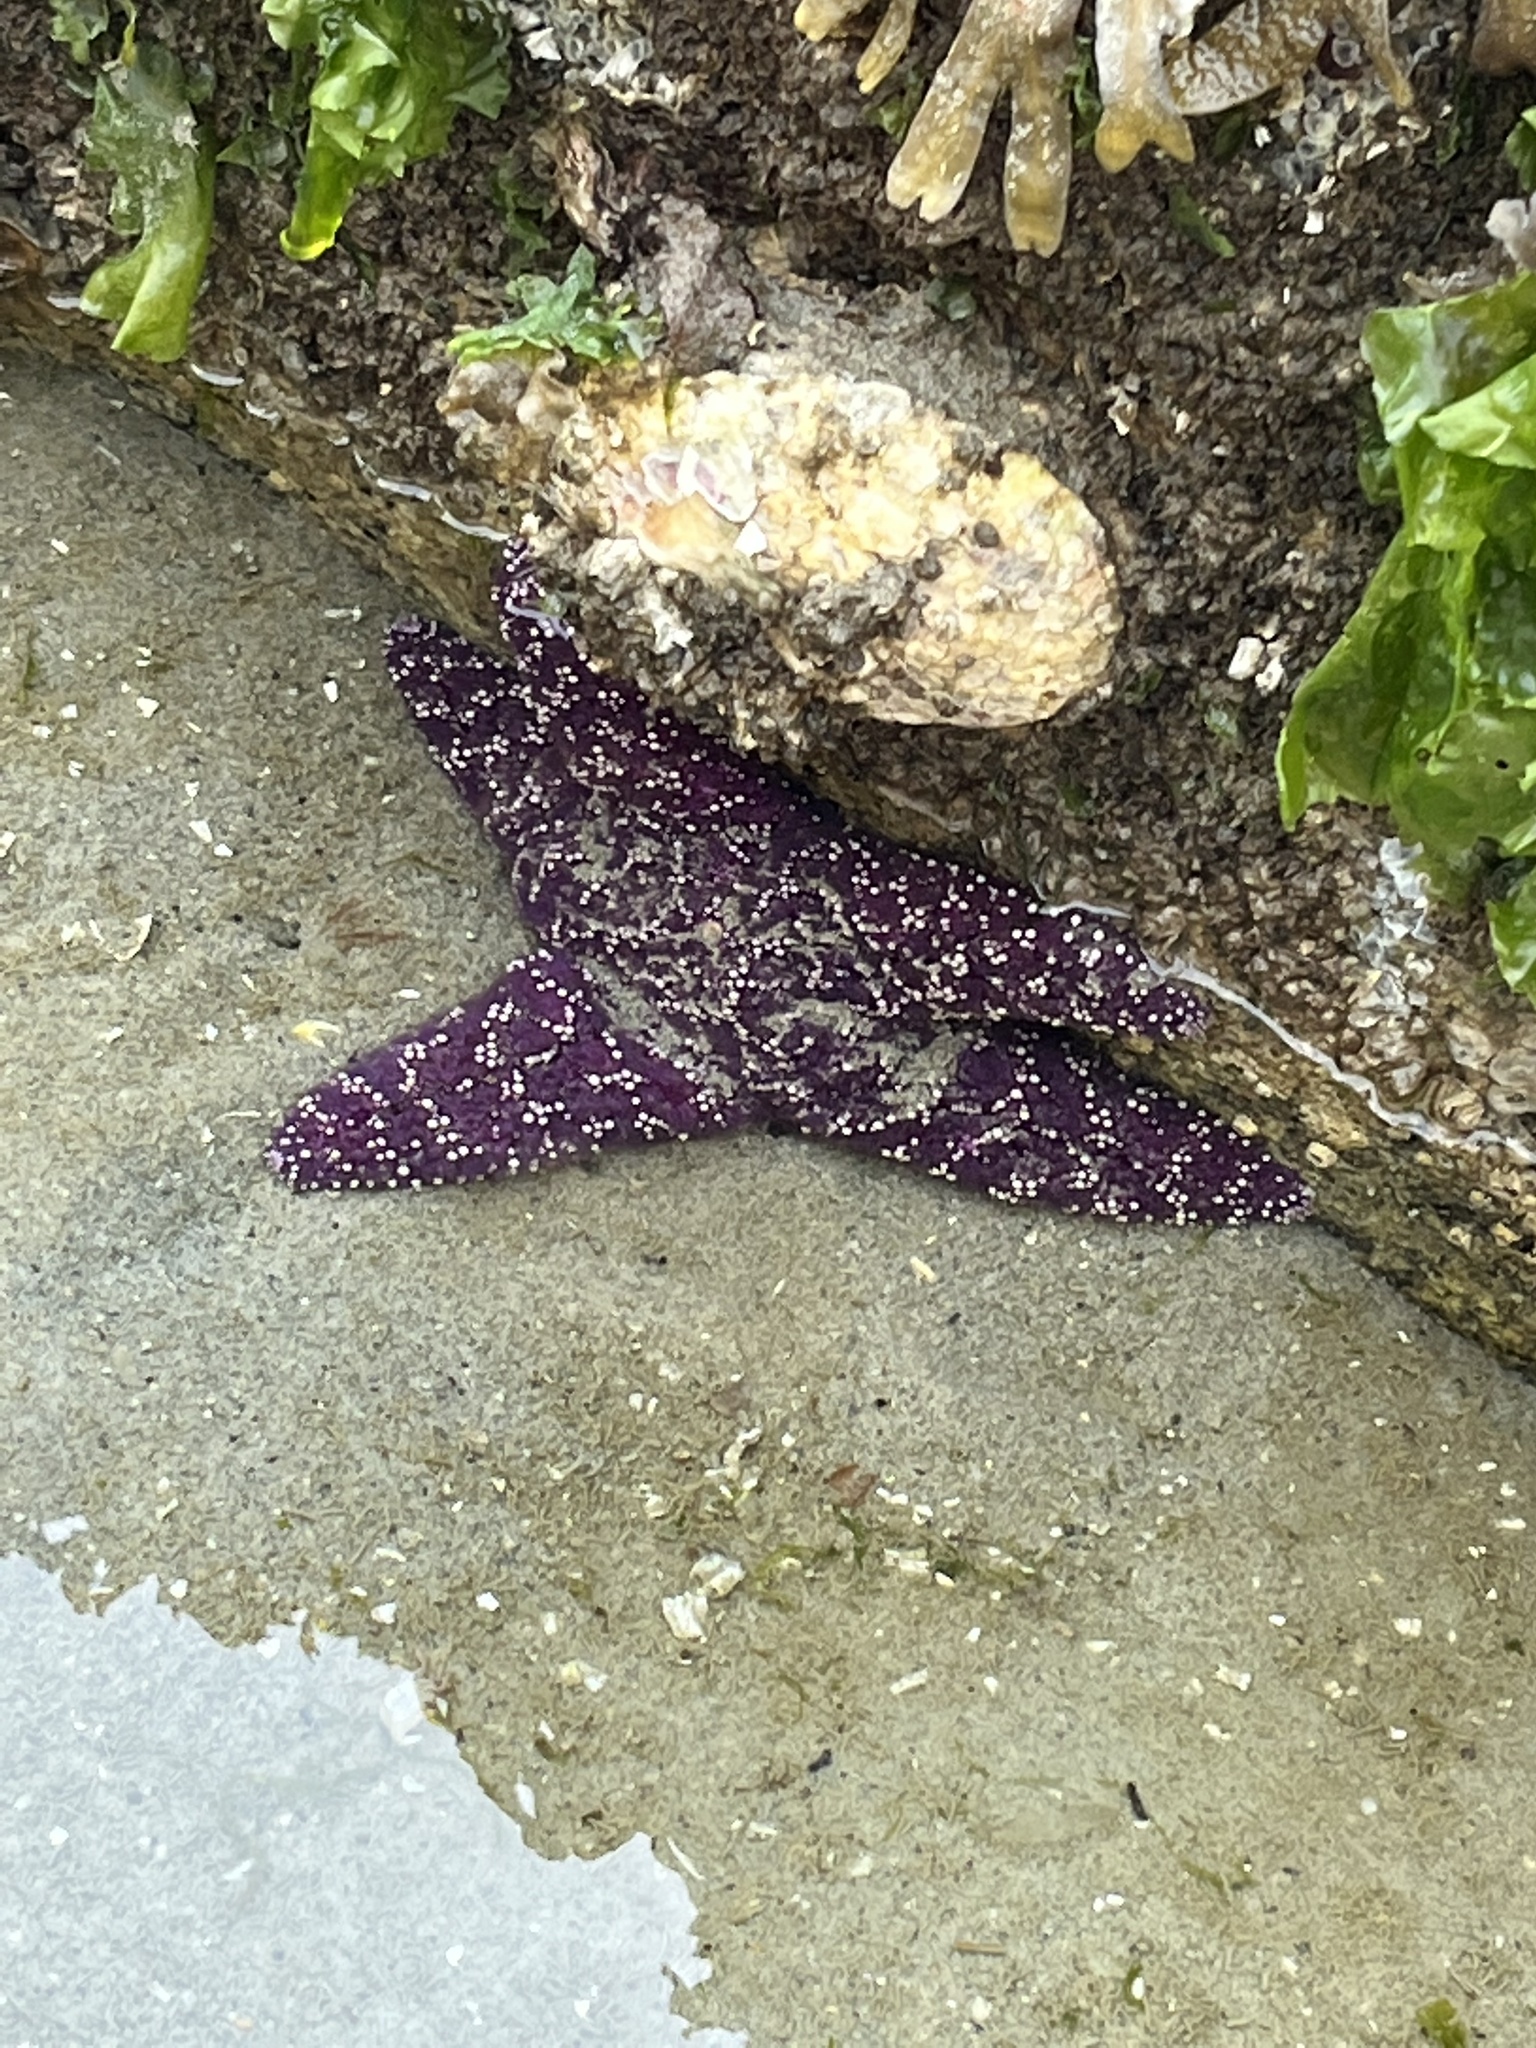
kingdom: Animalia
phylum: Echinodermata
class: Asteroidea
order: Forcipulatida
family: Asteriidae
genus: Pisaster
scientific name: Pisaster ochraceus
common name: Ochre stars
